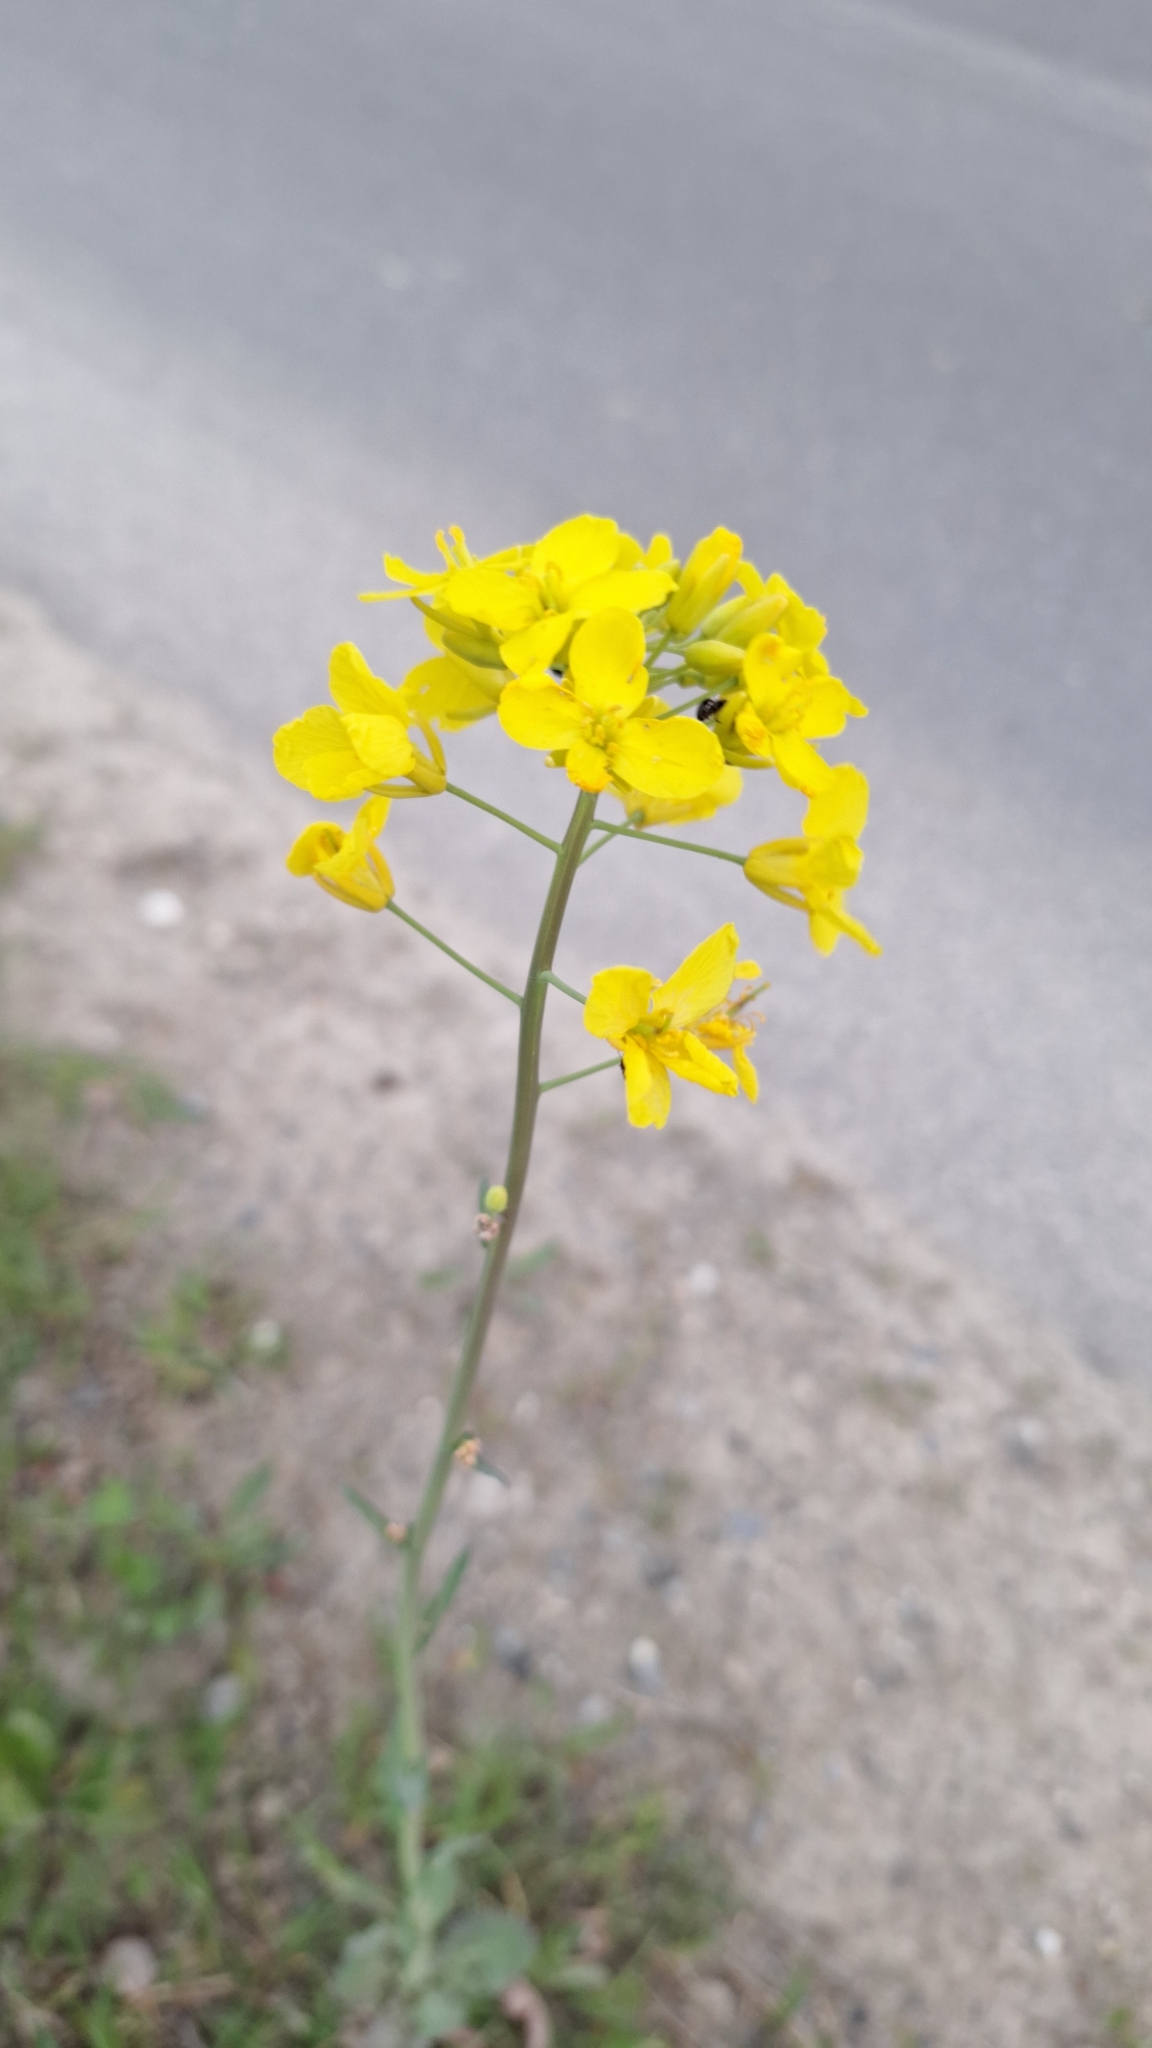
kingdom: Plantae
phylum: Tracheophyta
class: Magnoliopsida
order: Brassicales
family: Brassicaceae
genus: Brassica
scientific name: Brassica napus
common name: Rape
